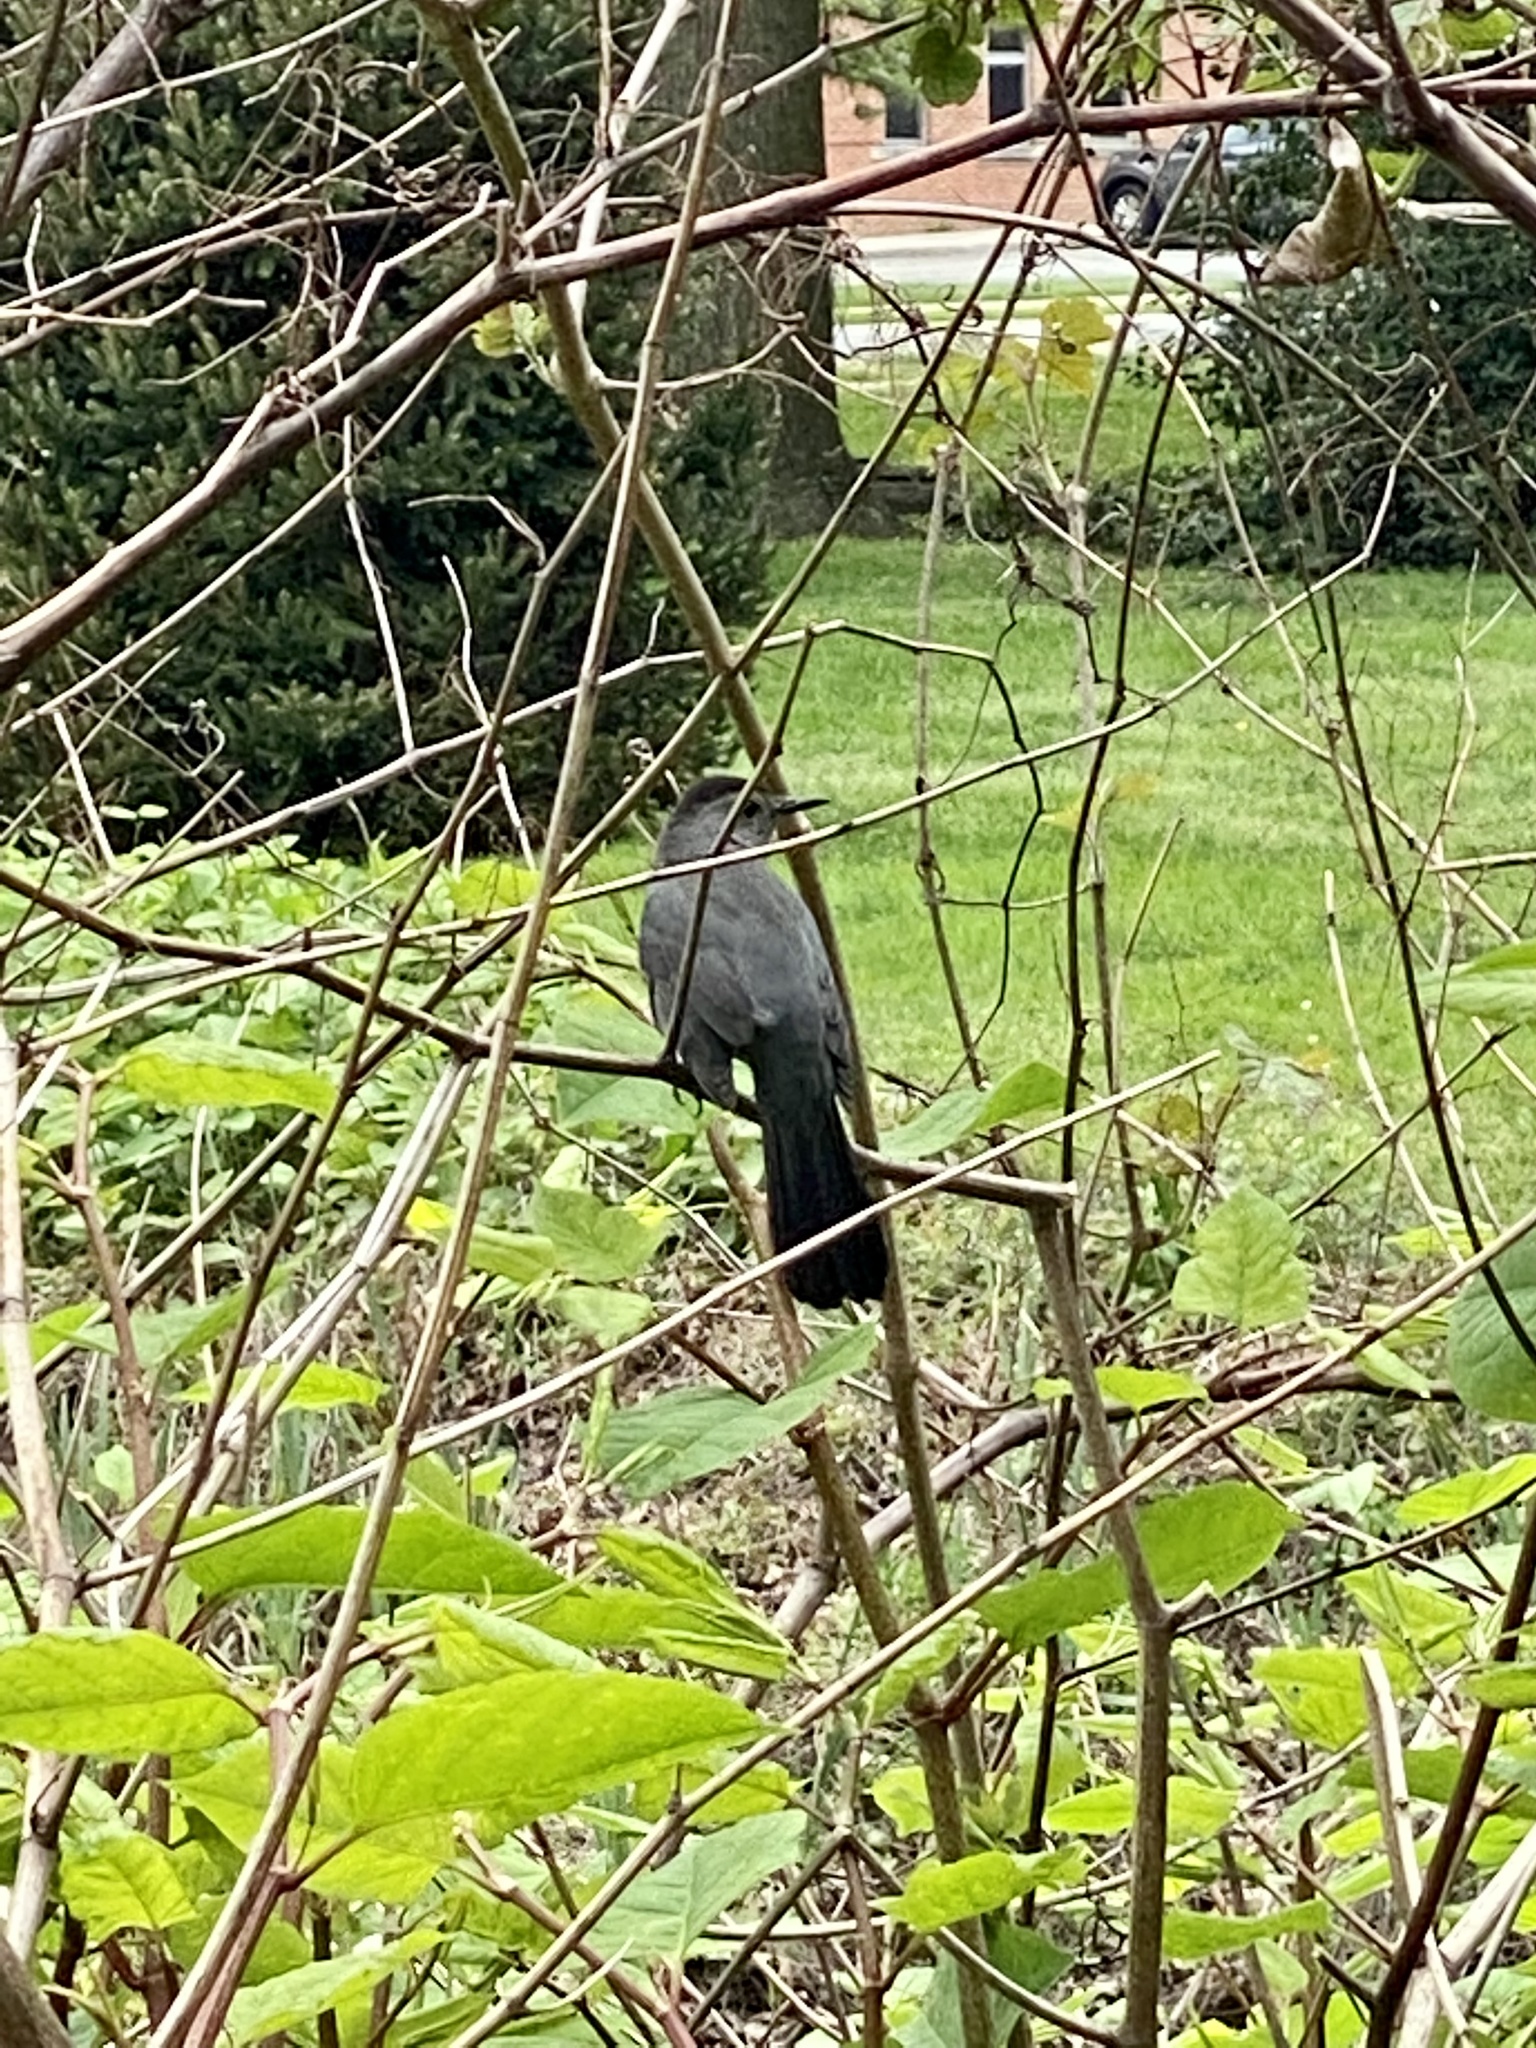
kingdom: Animalia
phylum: Chordata
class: Aves
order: Passeriformes
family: Mimidae
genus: Dumetella
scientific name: Dumetella carolinensis
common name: Gray catbird
